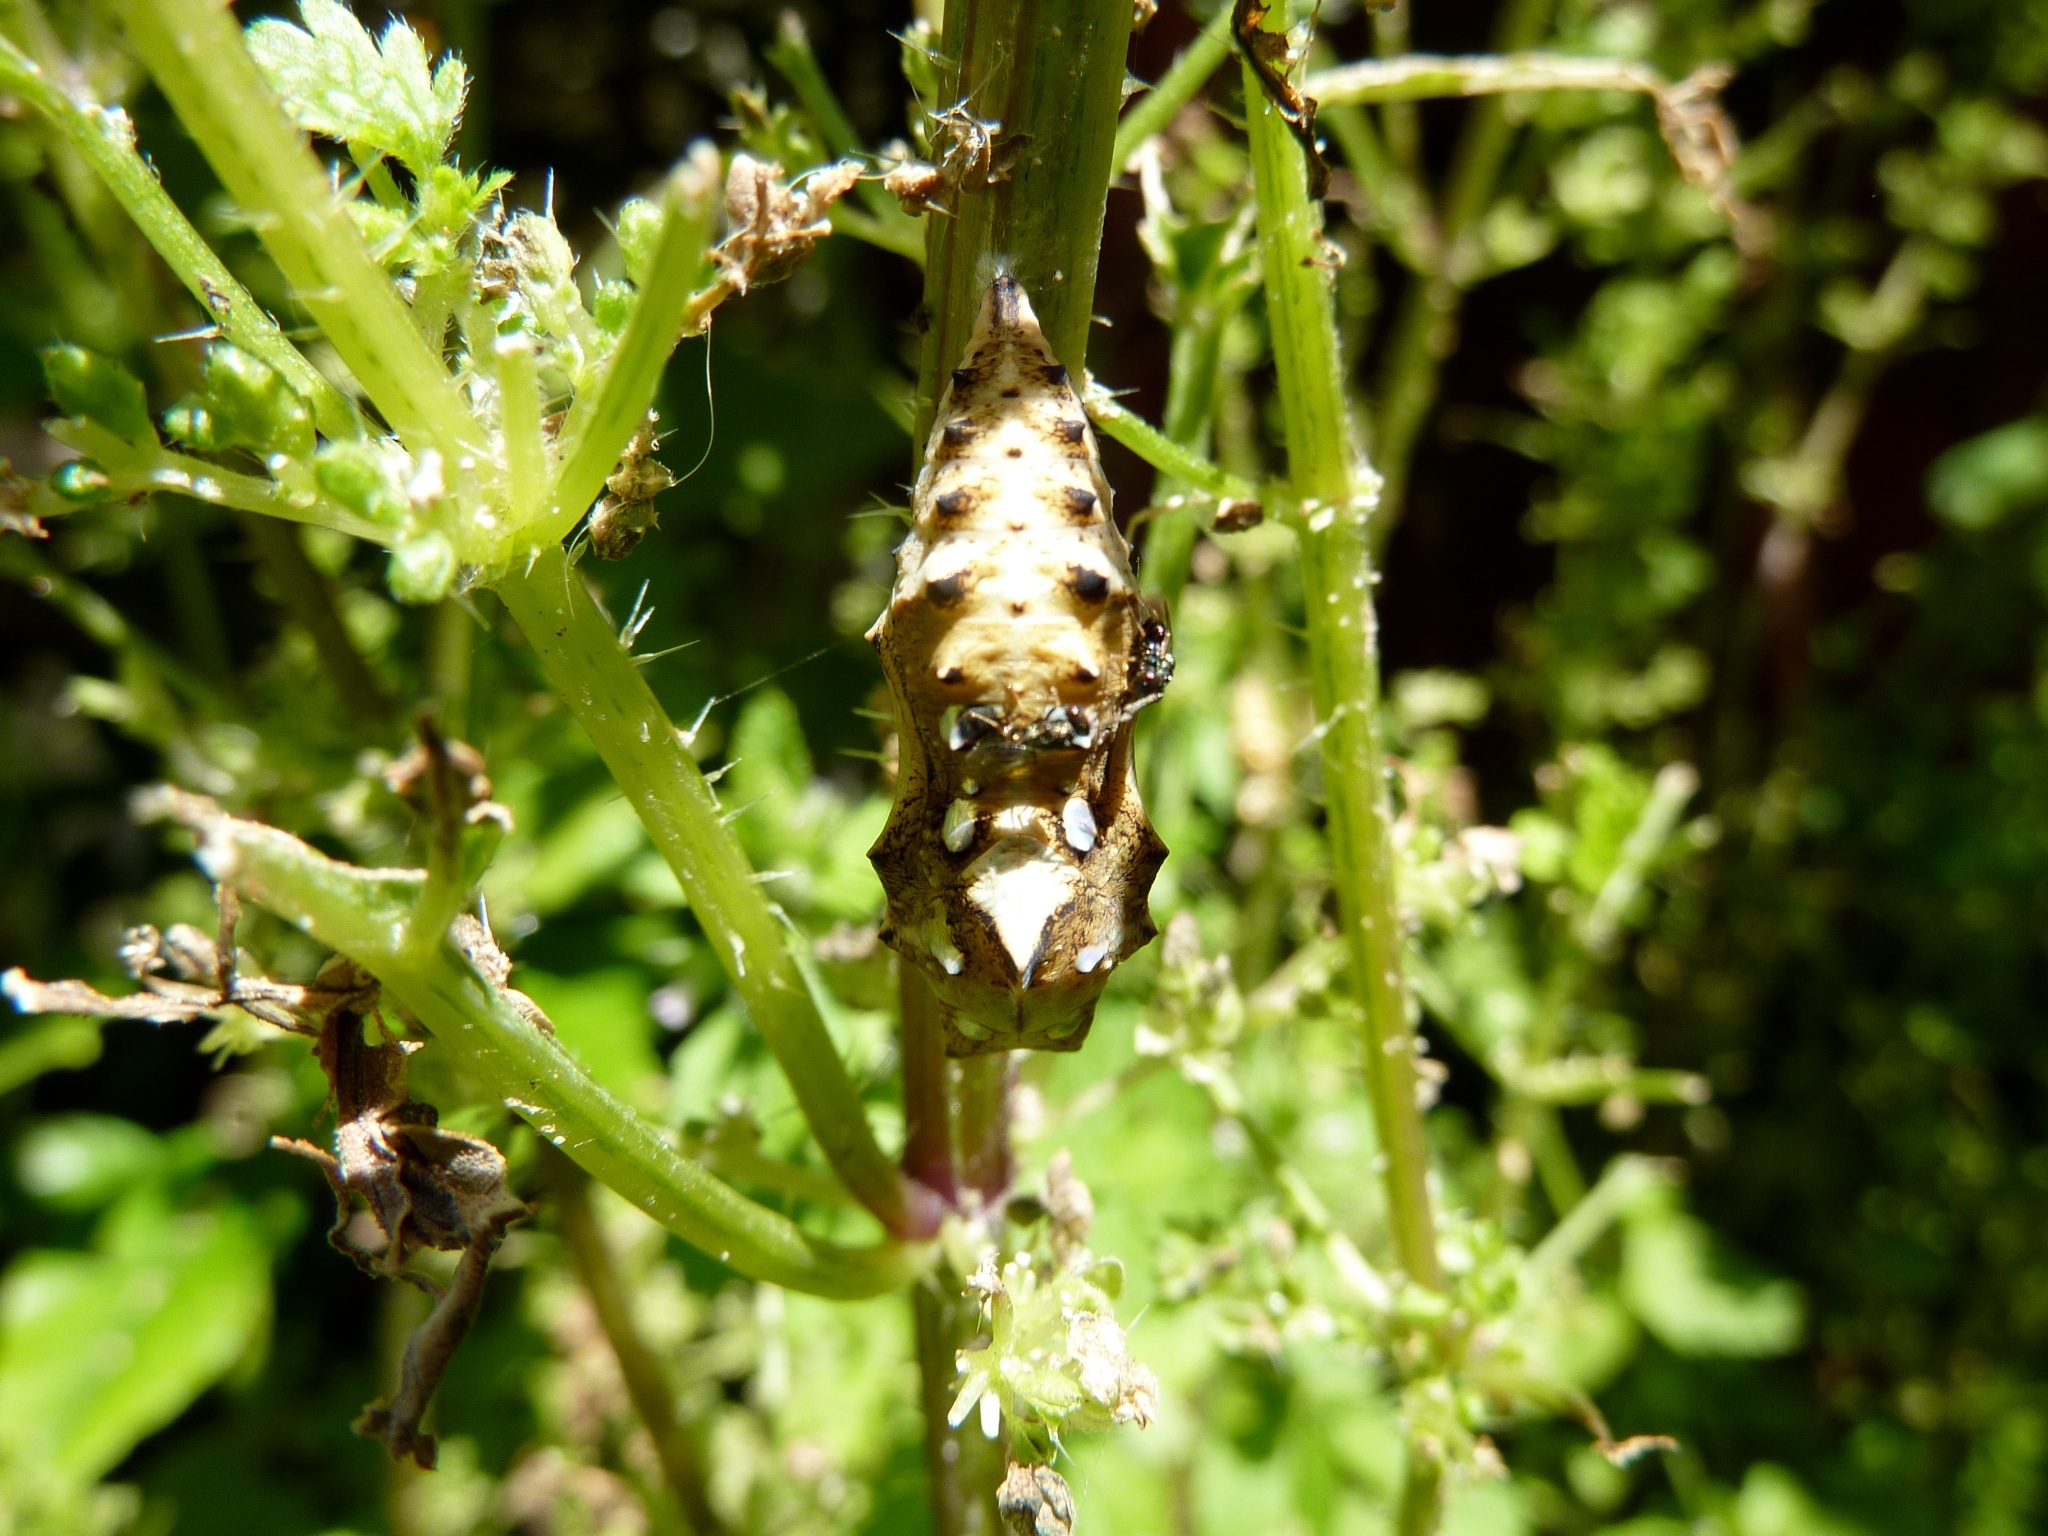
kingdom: Animalia
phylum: Arthropoda
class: Insecta
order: Lepidoptera
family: Nymphalidae
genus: Vanessa
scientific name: Vanessa itea
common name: Yellow admiral
